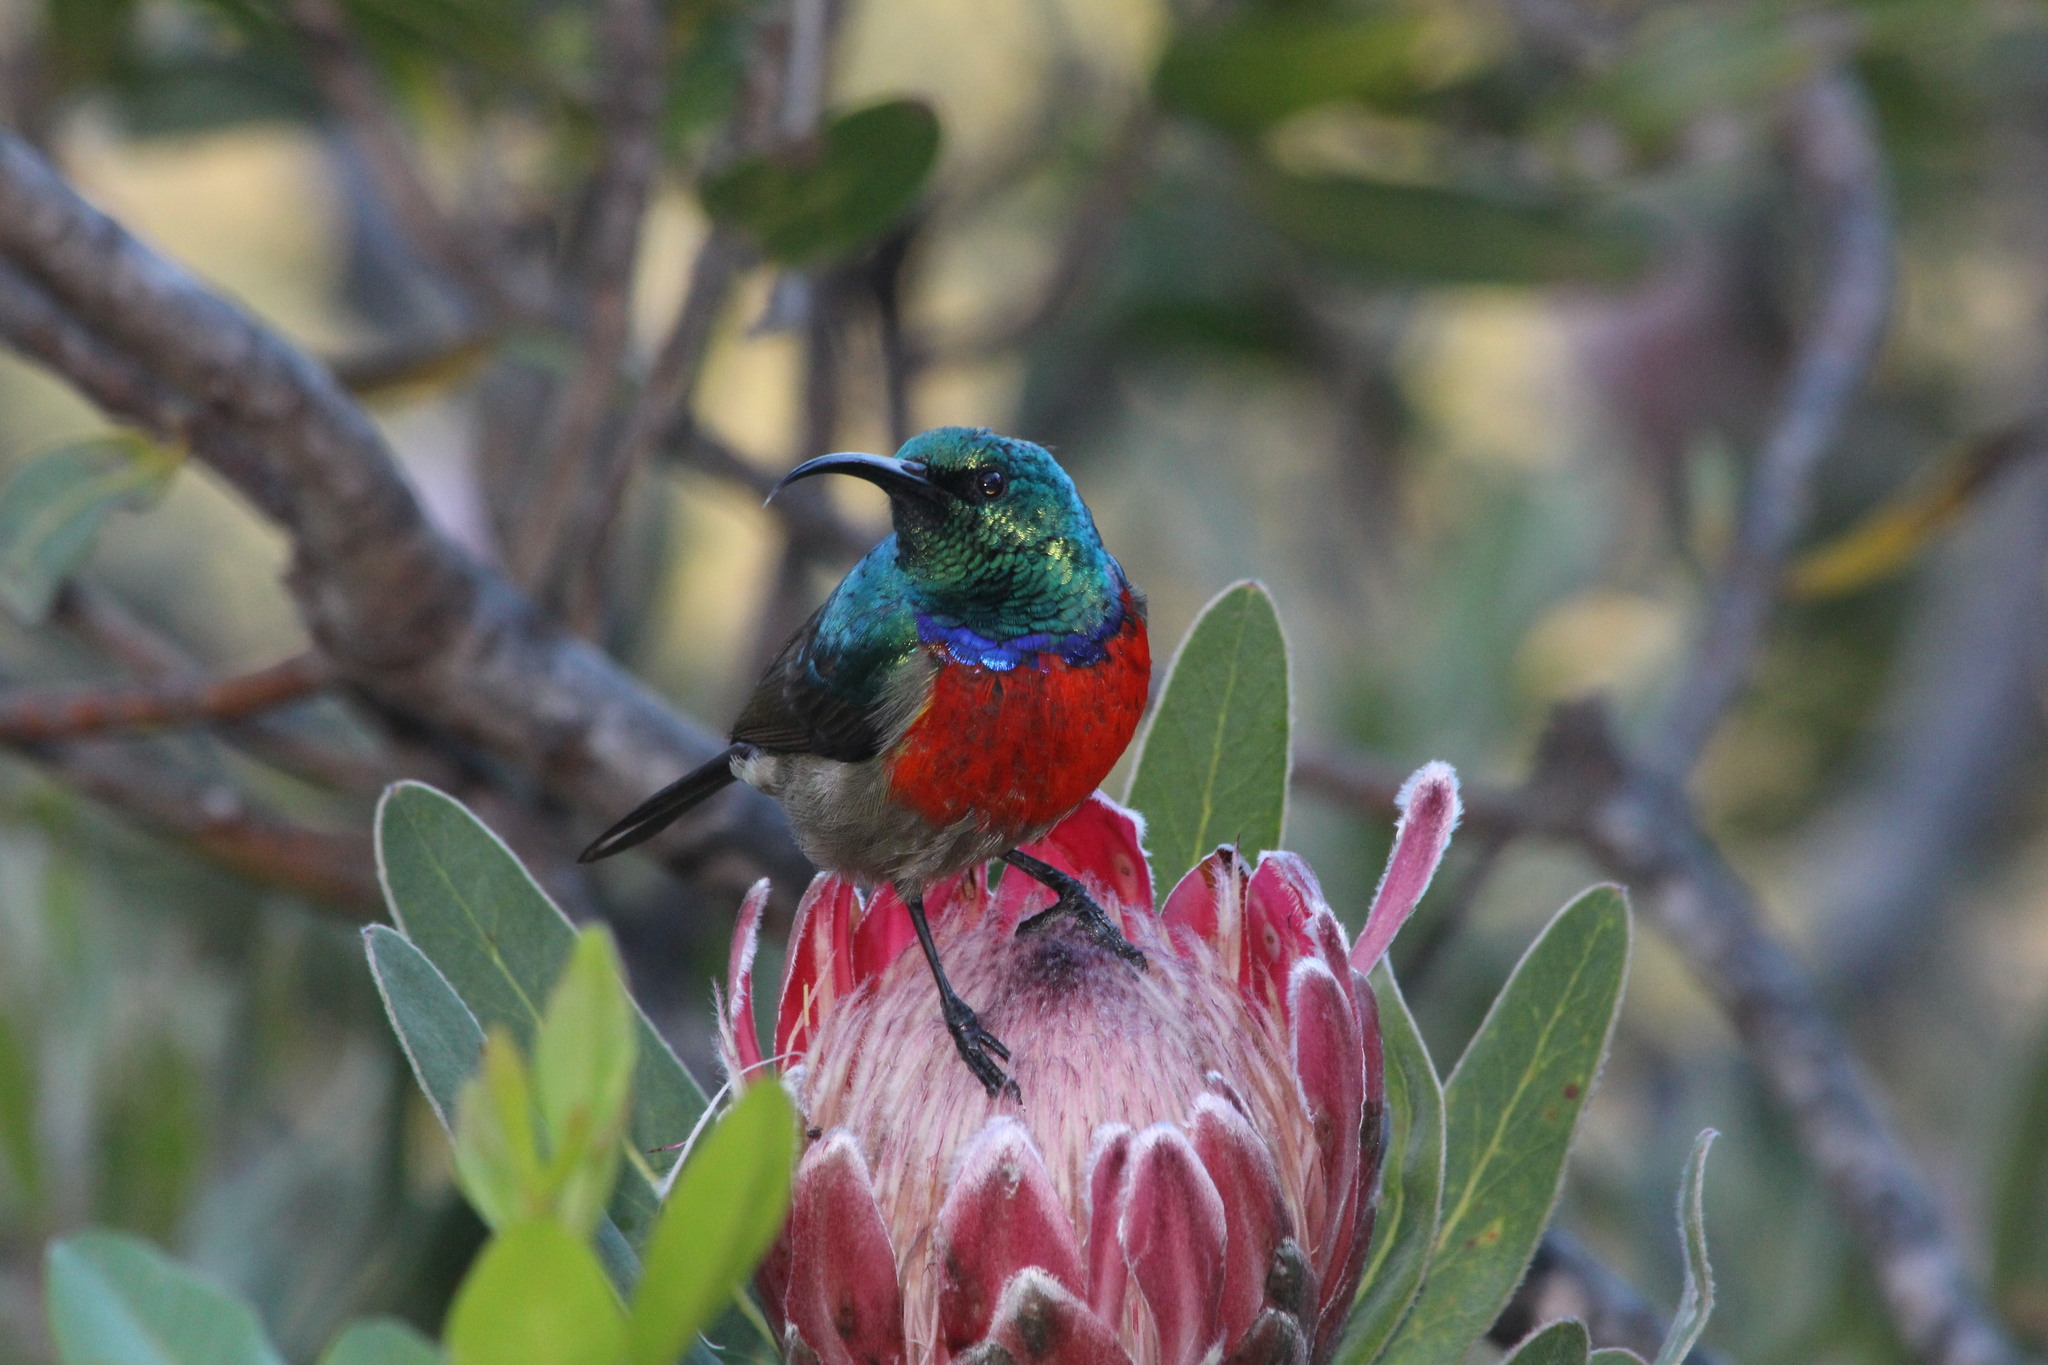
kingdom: Animalia
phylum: Chordata
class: Aves
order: Passeriformes
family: Nectariniidae
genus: Cinnyris
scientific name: Cinnyris afer
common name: Greater double-collared sunbird
